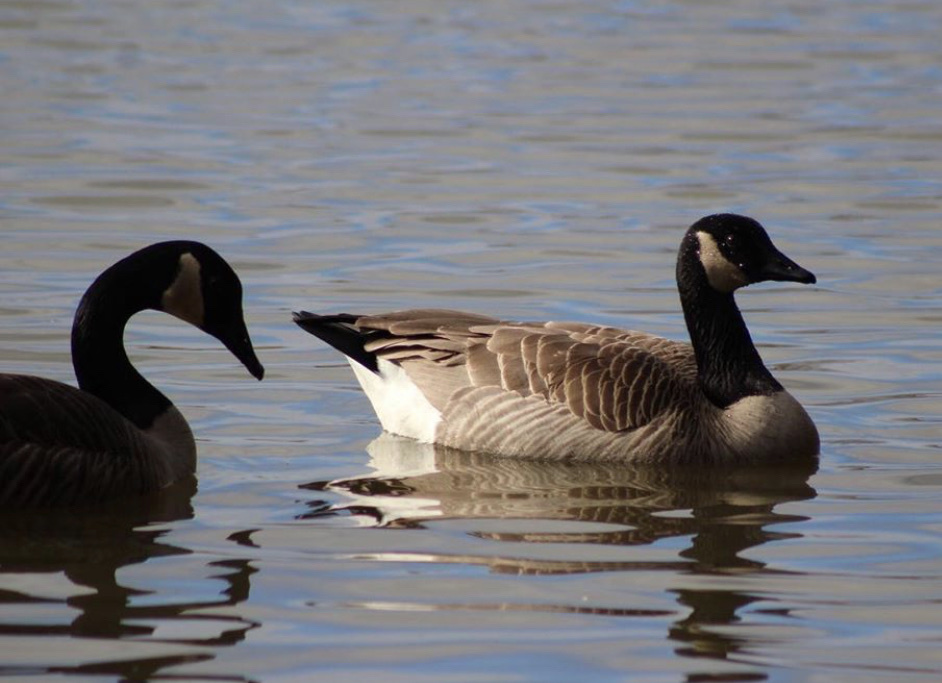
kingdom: Animalia
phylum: Chordata
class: Aves
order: Anseriformes
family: Anatidae
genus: Branta
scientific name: Branta canadensis
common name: Canada goose
